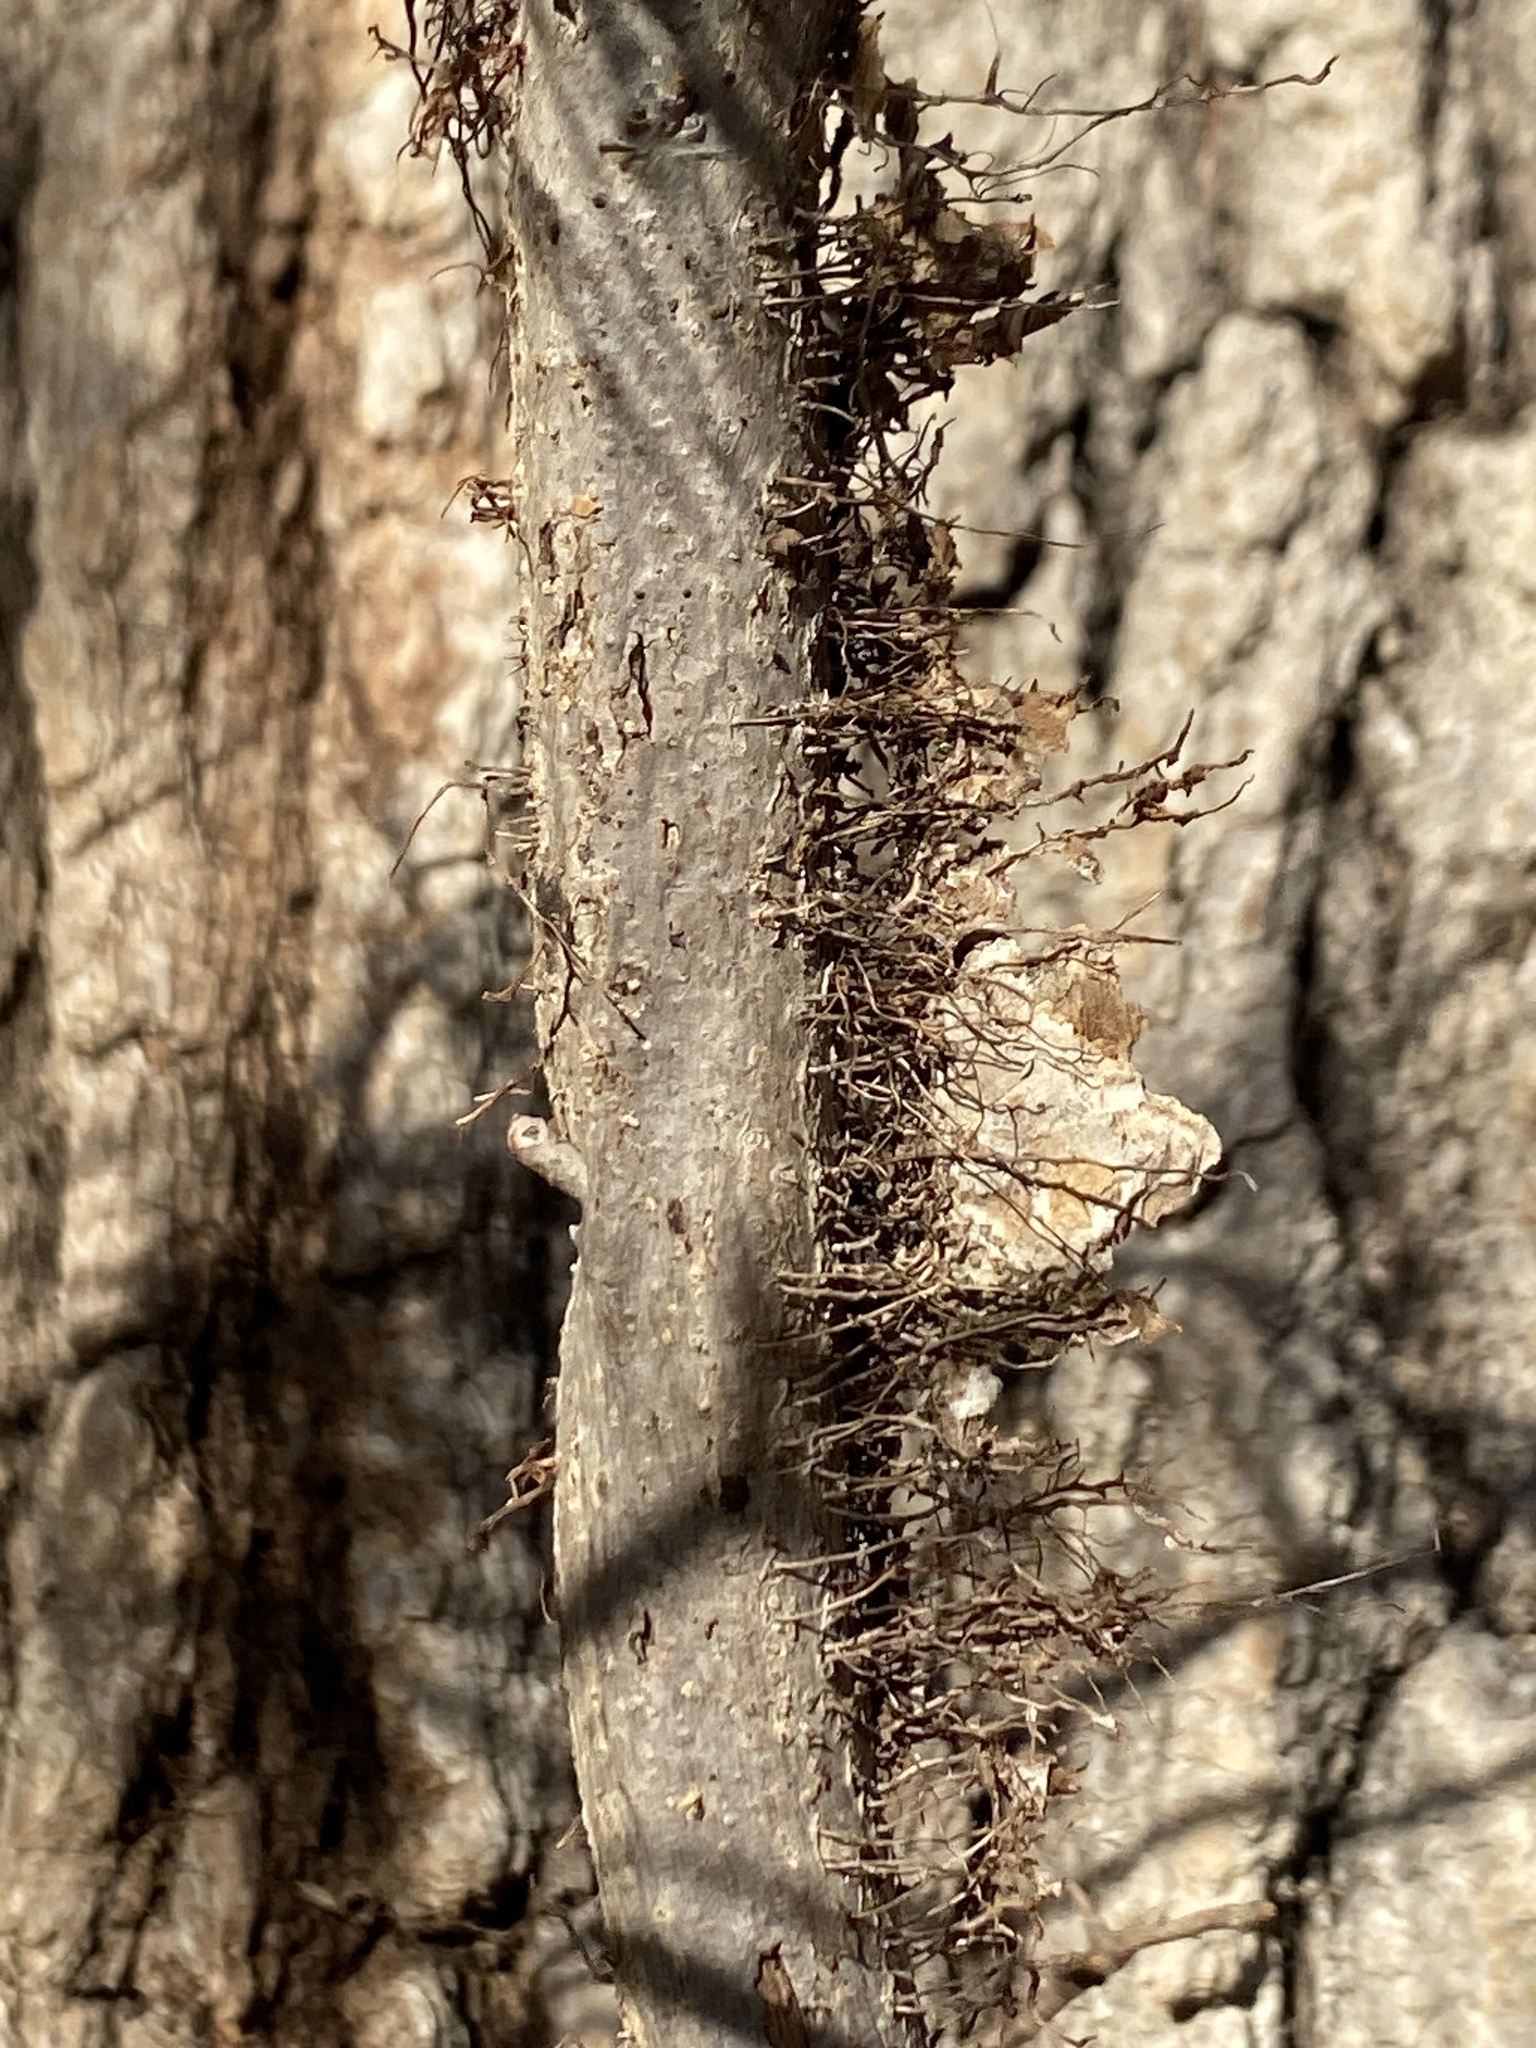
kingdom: Plantae
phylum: Tracheophyta
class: Magnoliopsida
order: Sapindales
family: Anacardiaceae
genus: Toxicodendron
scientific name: Toxicodendron radicans
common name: Poison ivy
